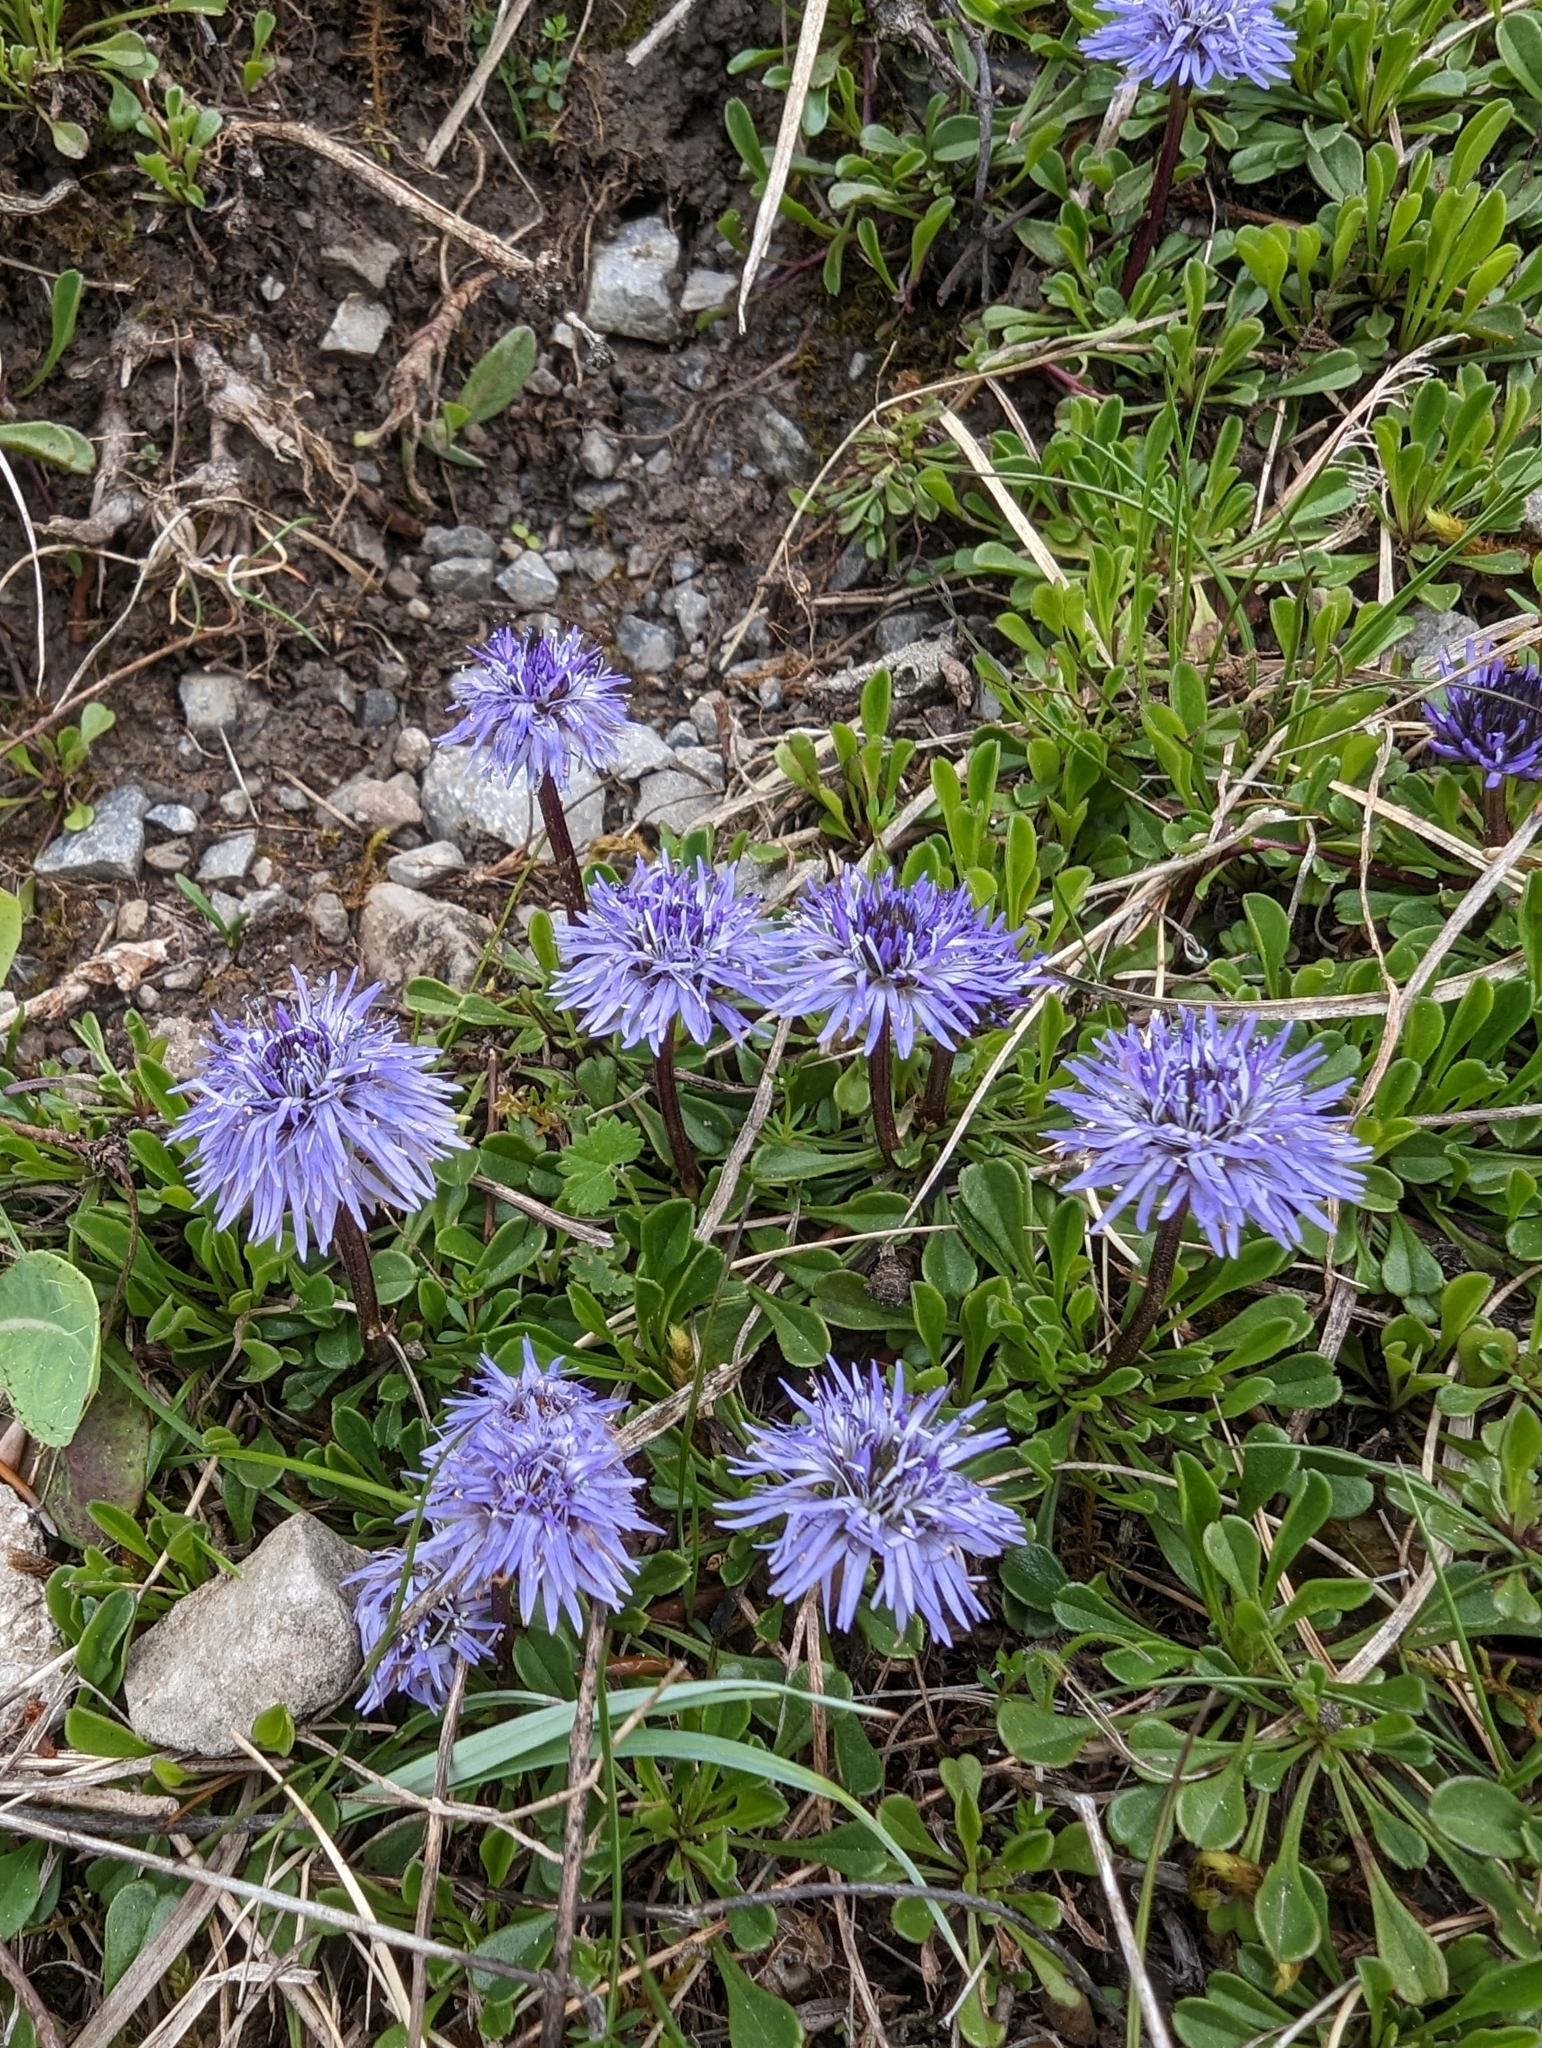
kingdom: Plantae
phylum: Tracheophyta
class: Magnoliopsida
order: Lamiales
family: Plantaginaceae
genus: Globularia
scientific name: Globularia cordifolia
